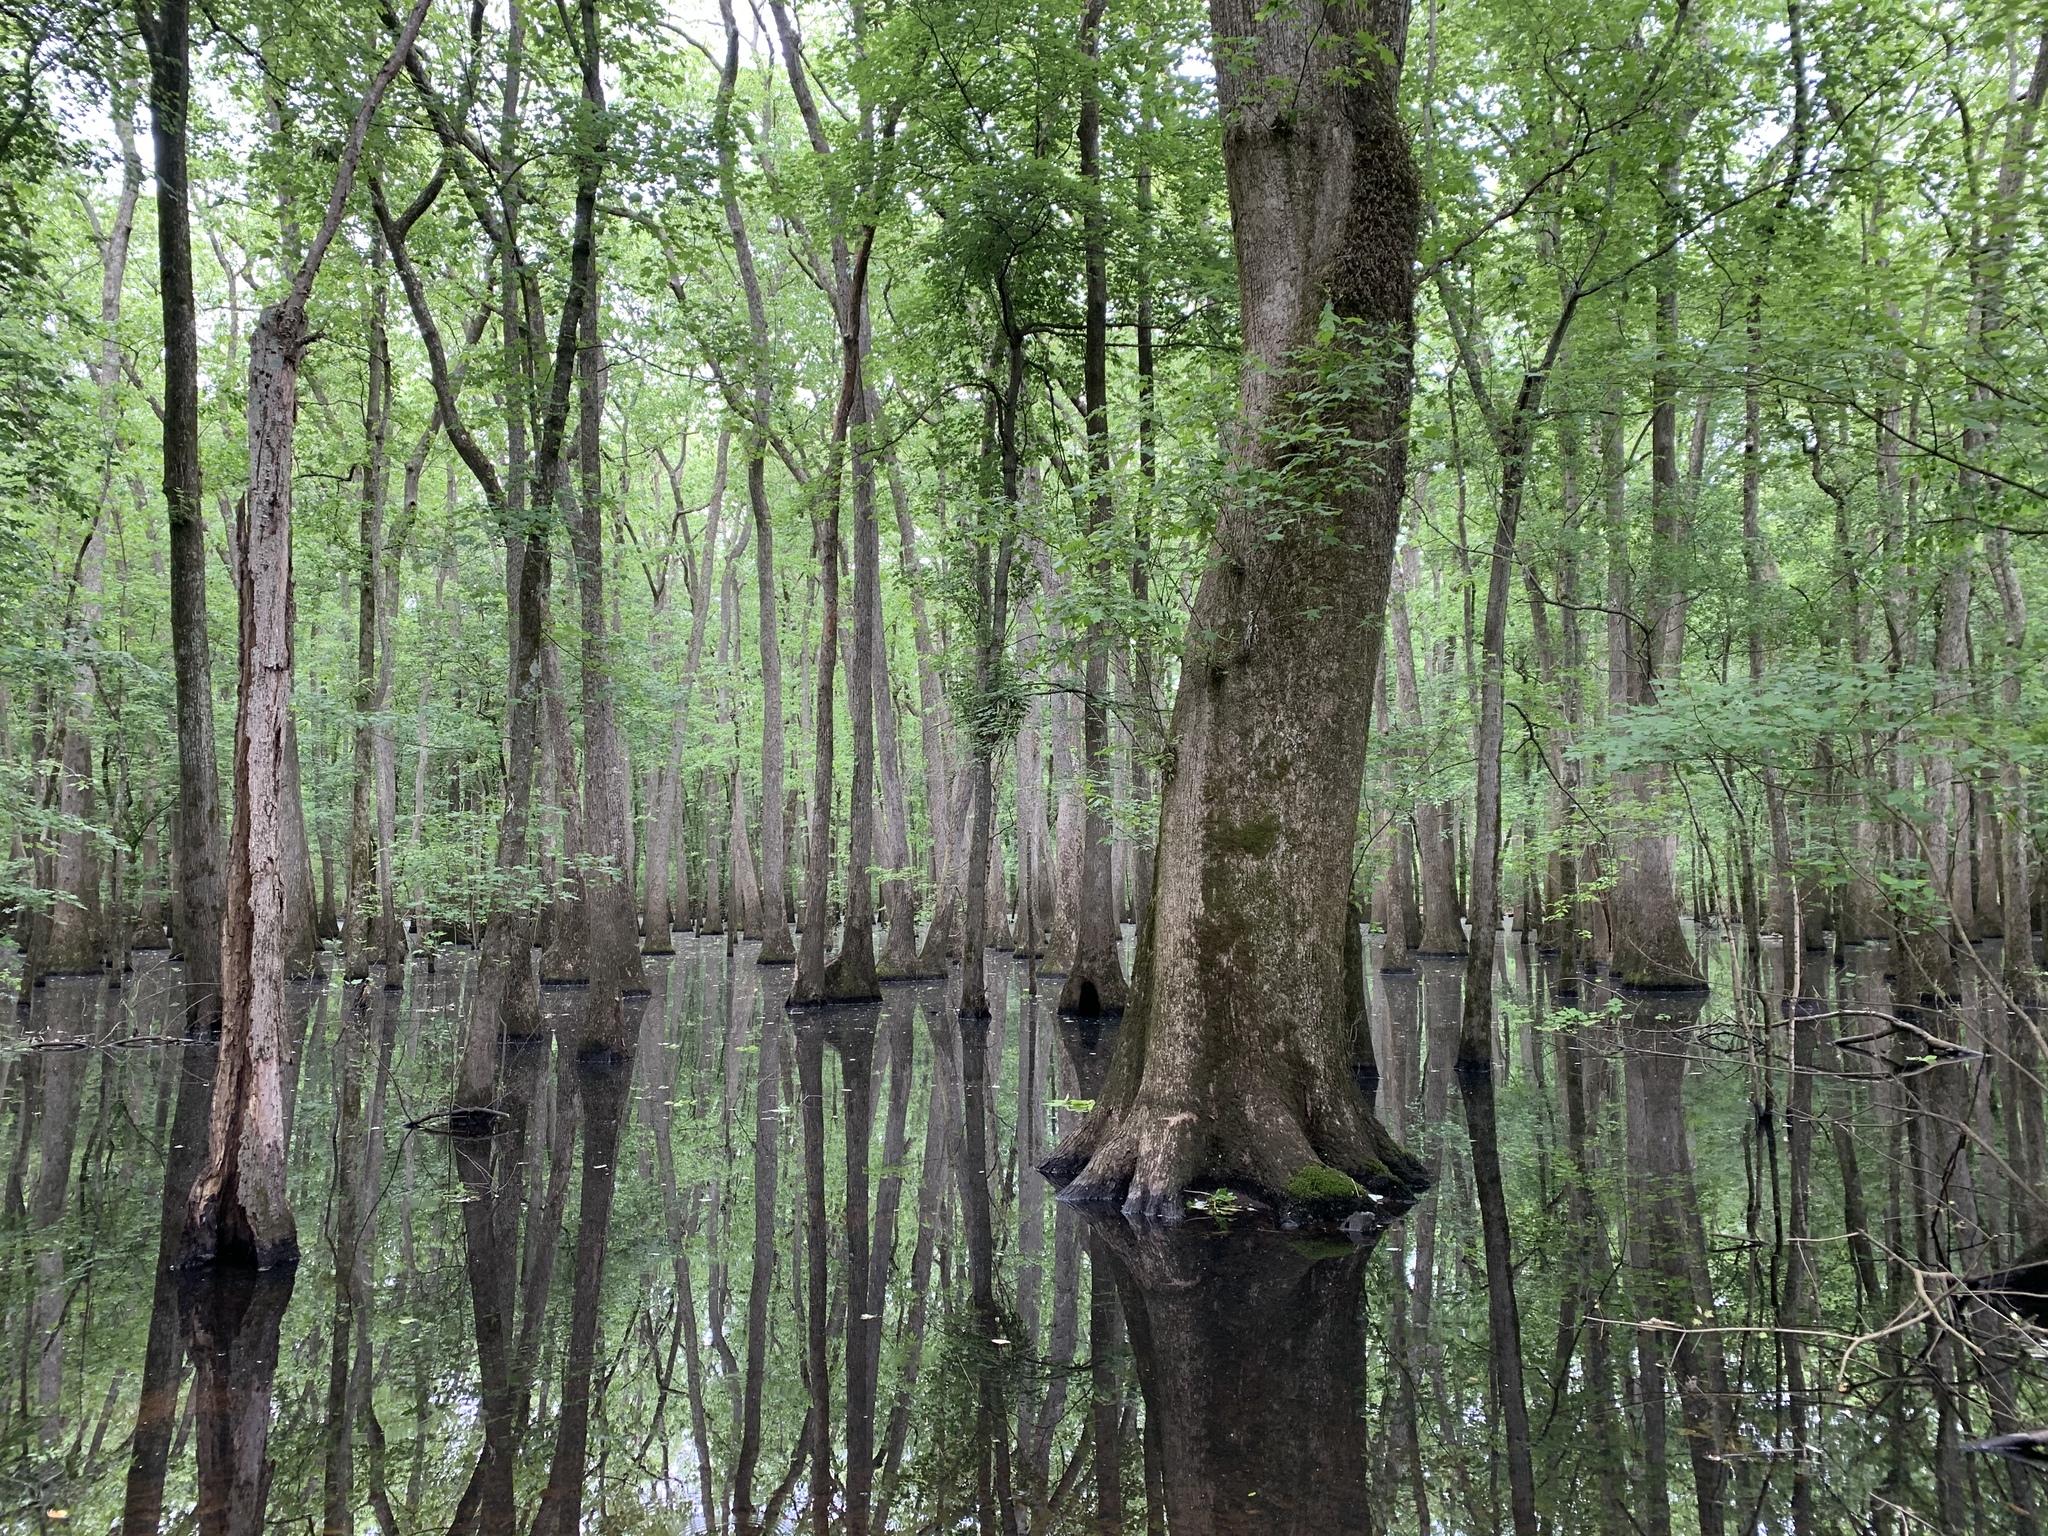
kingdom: Animalia
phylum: Chordata
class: Amphibia
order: Anura
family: Hylidae
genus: Dryophytes
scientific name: Dryophytes chrysoscelis
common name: Cope's gray treefrog
